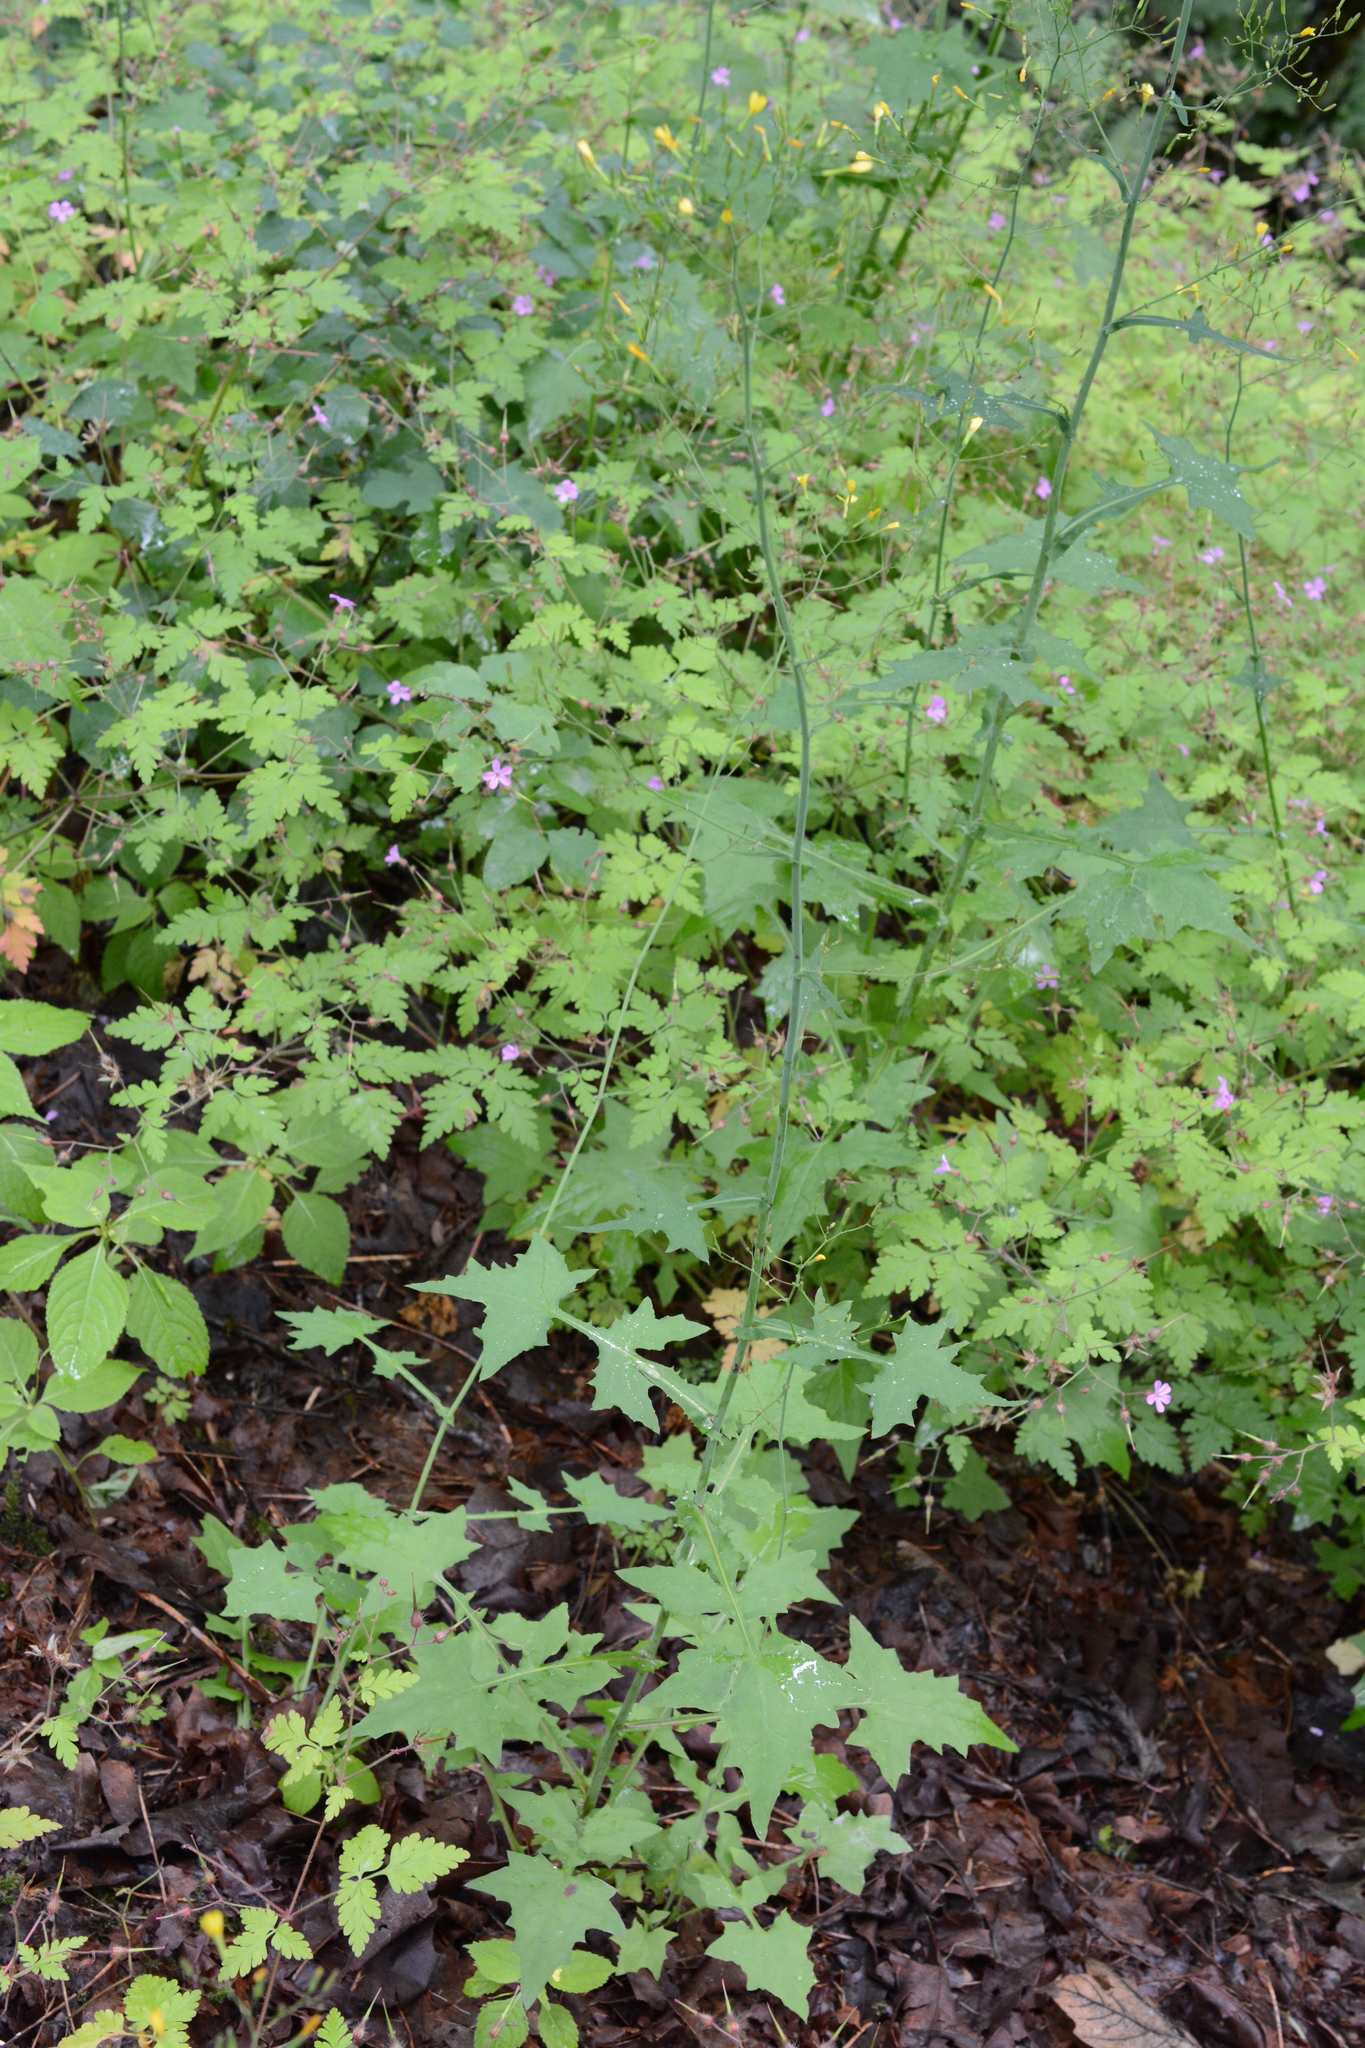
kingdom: Plantae
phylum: Tracheophyta
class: Magnoliopsida
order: Asterales
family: Asteraceae
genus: Mycelis
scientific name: Mycelis muralis
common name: Wall lettuce
